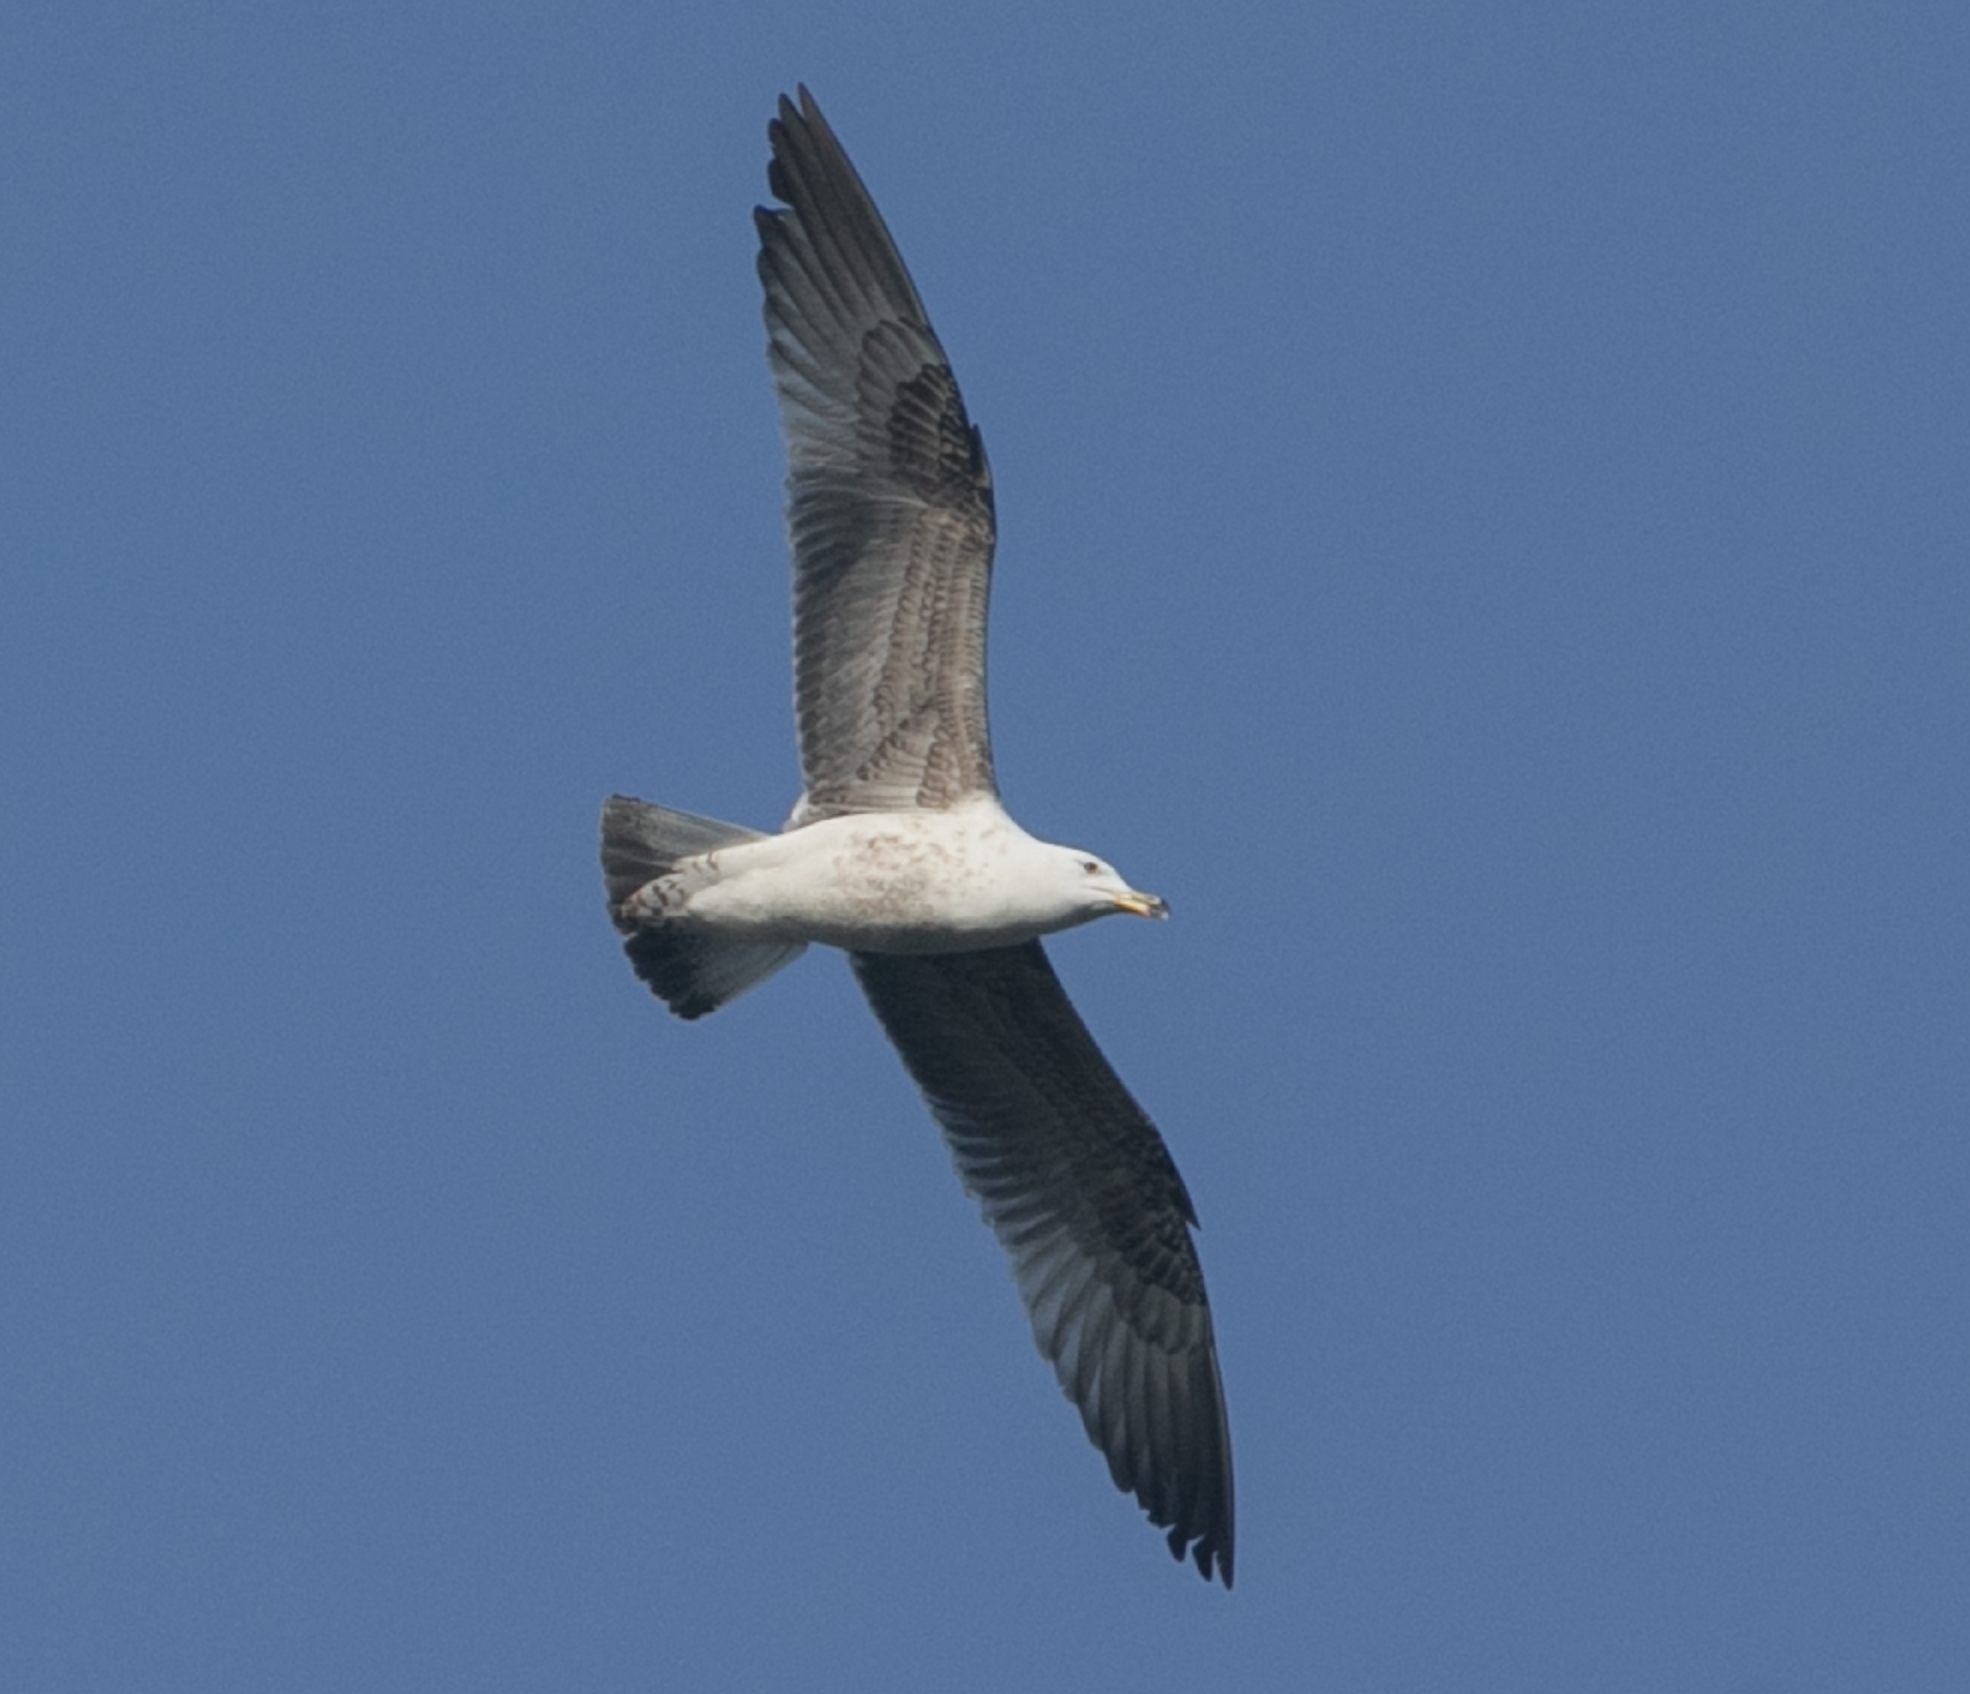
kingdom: Animalia
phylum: Chordata
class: Aves
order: Charadriiformes
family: Laridae
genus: Larus
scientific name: Larus michahellis
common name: Yellow-legged gull
